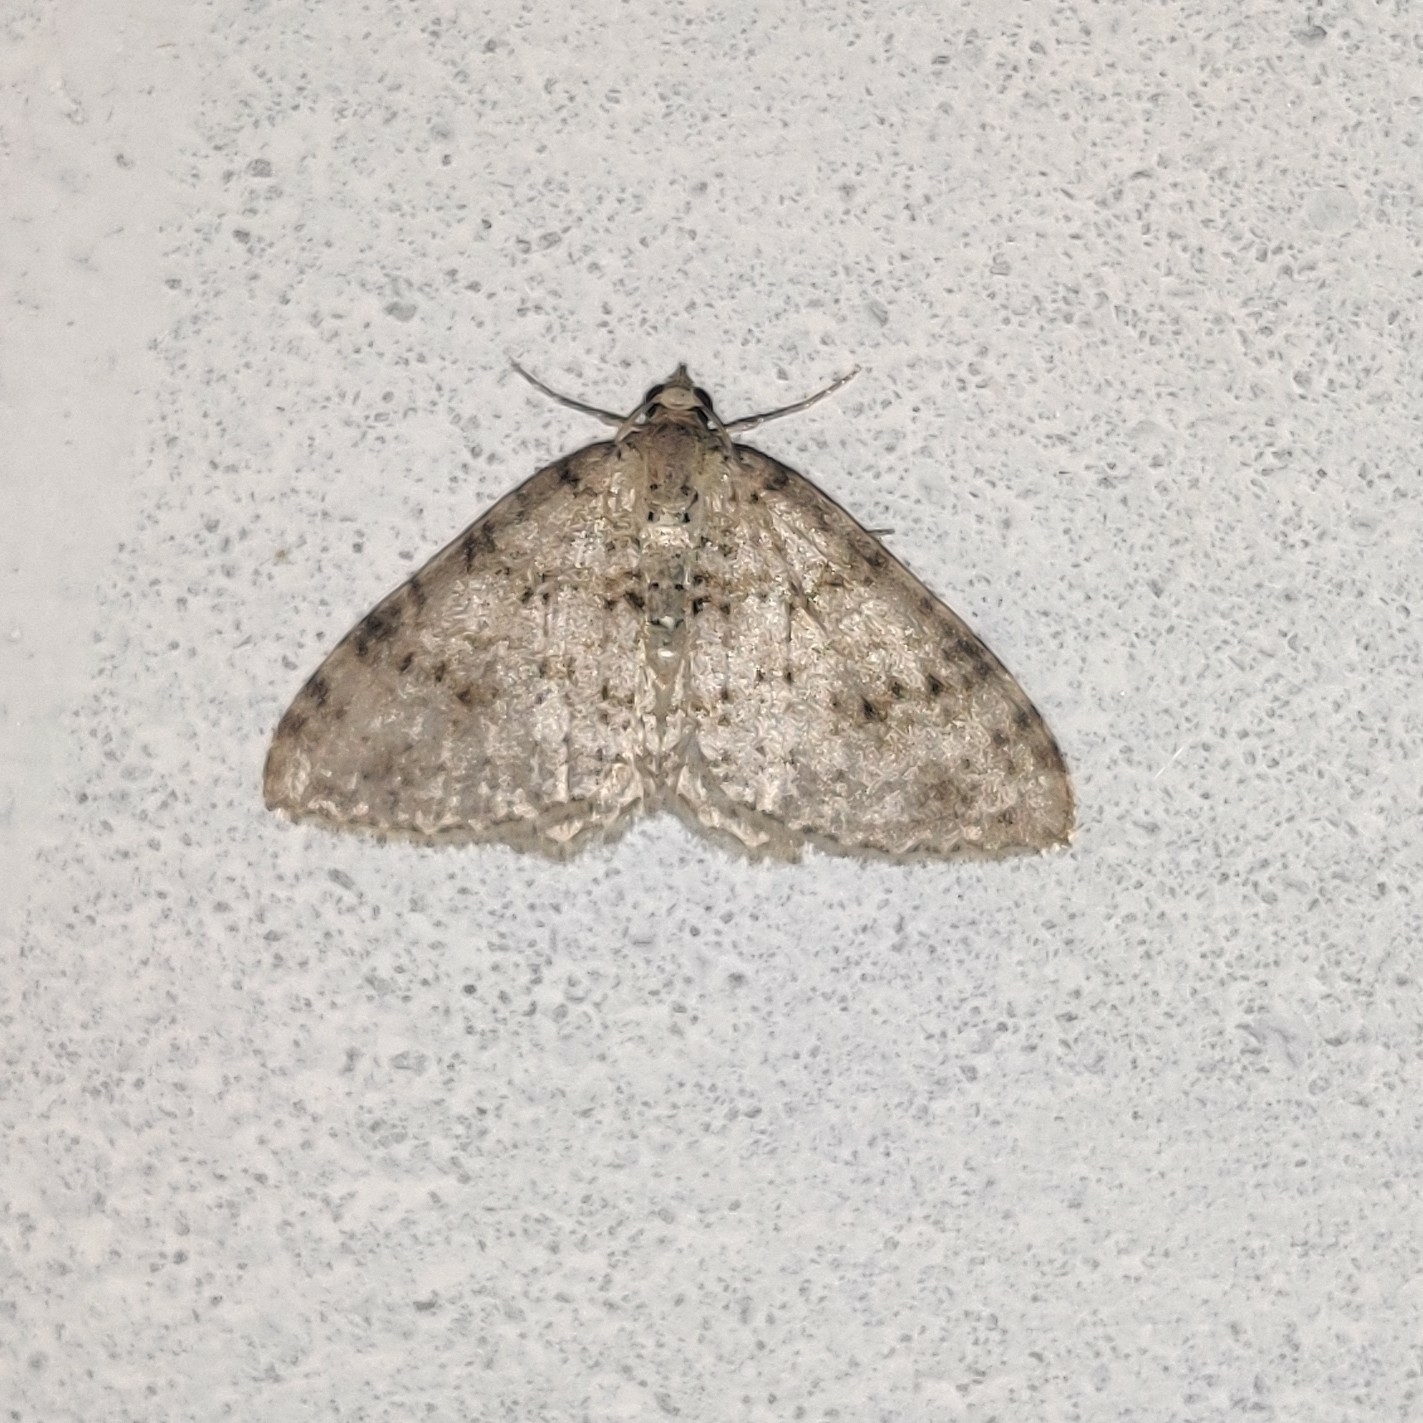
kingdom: Animalia
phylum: Arthropoda
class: Insecta
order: Lepidoptera
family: Geometridae
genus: Atopophysa
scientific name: Atopophysa indistincta
